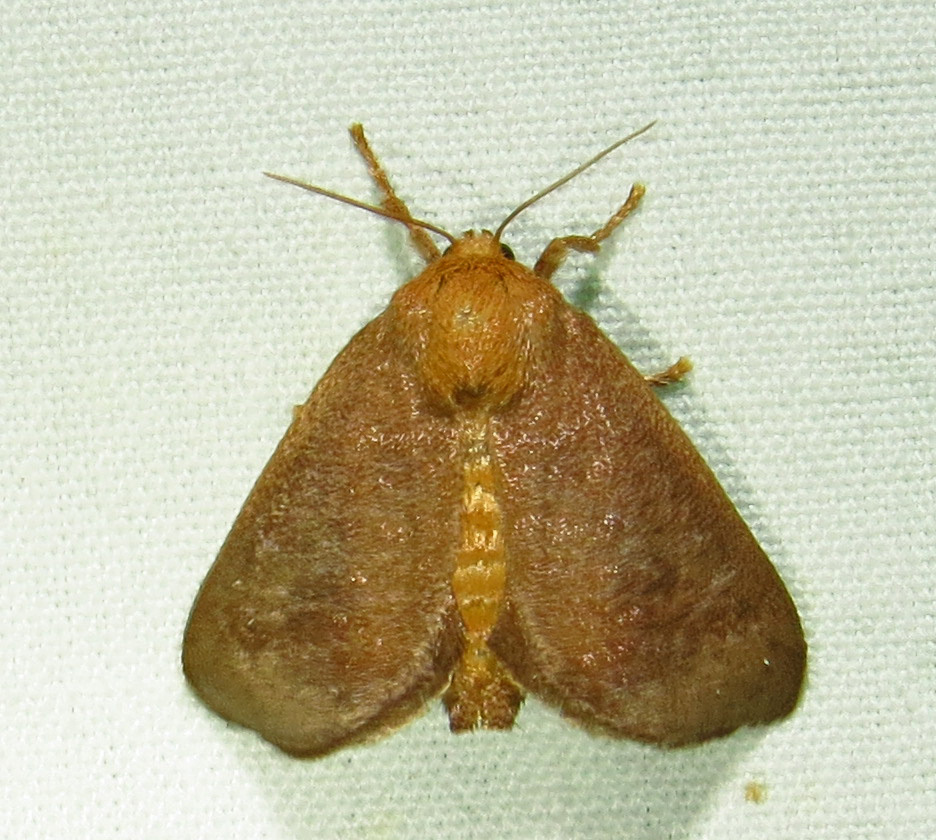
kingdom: Animalia
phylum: Arthropoda
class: Insecta
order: Lepidoptera
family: Limacodidae
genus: Isa
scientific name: Isa textula
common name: Crowned slug moth
